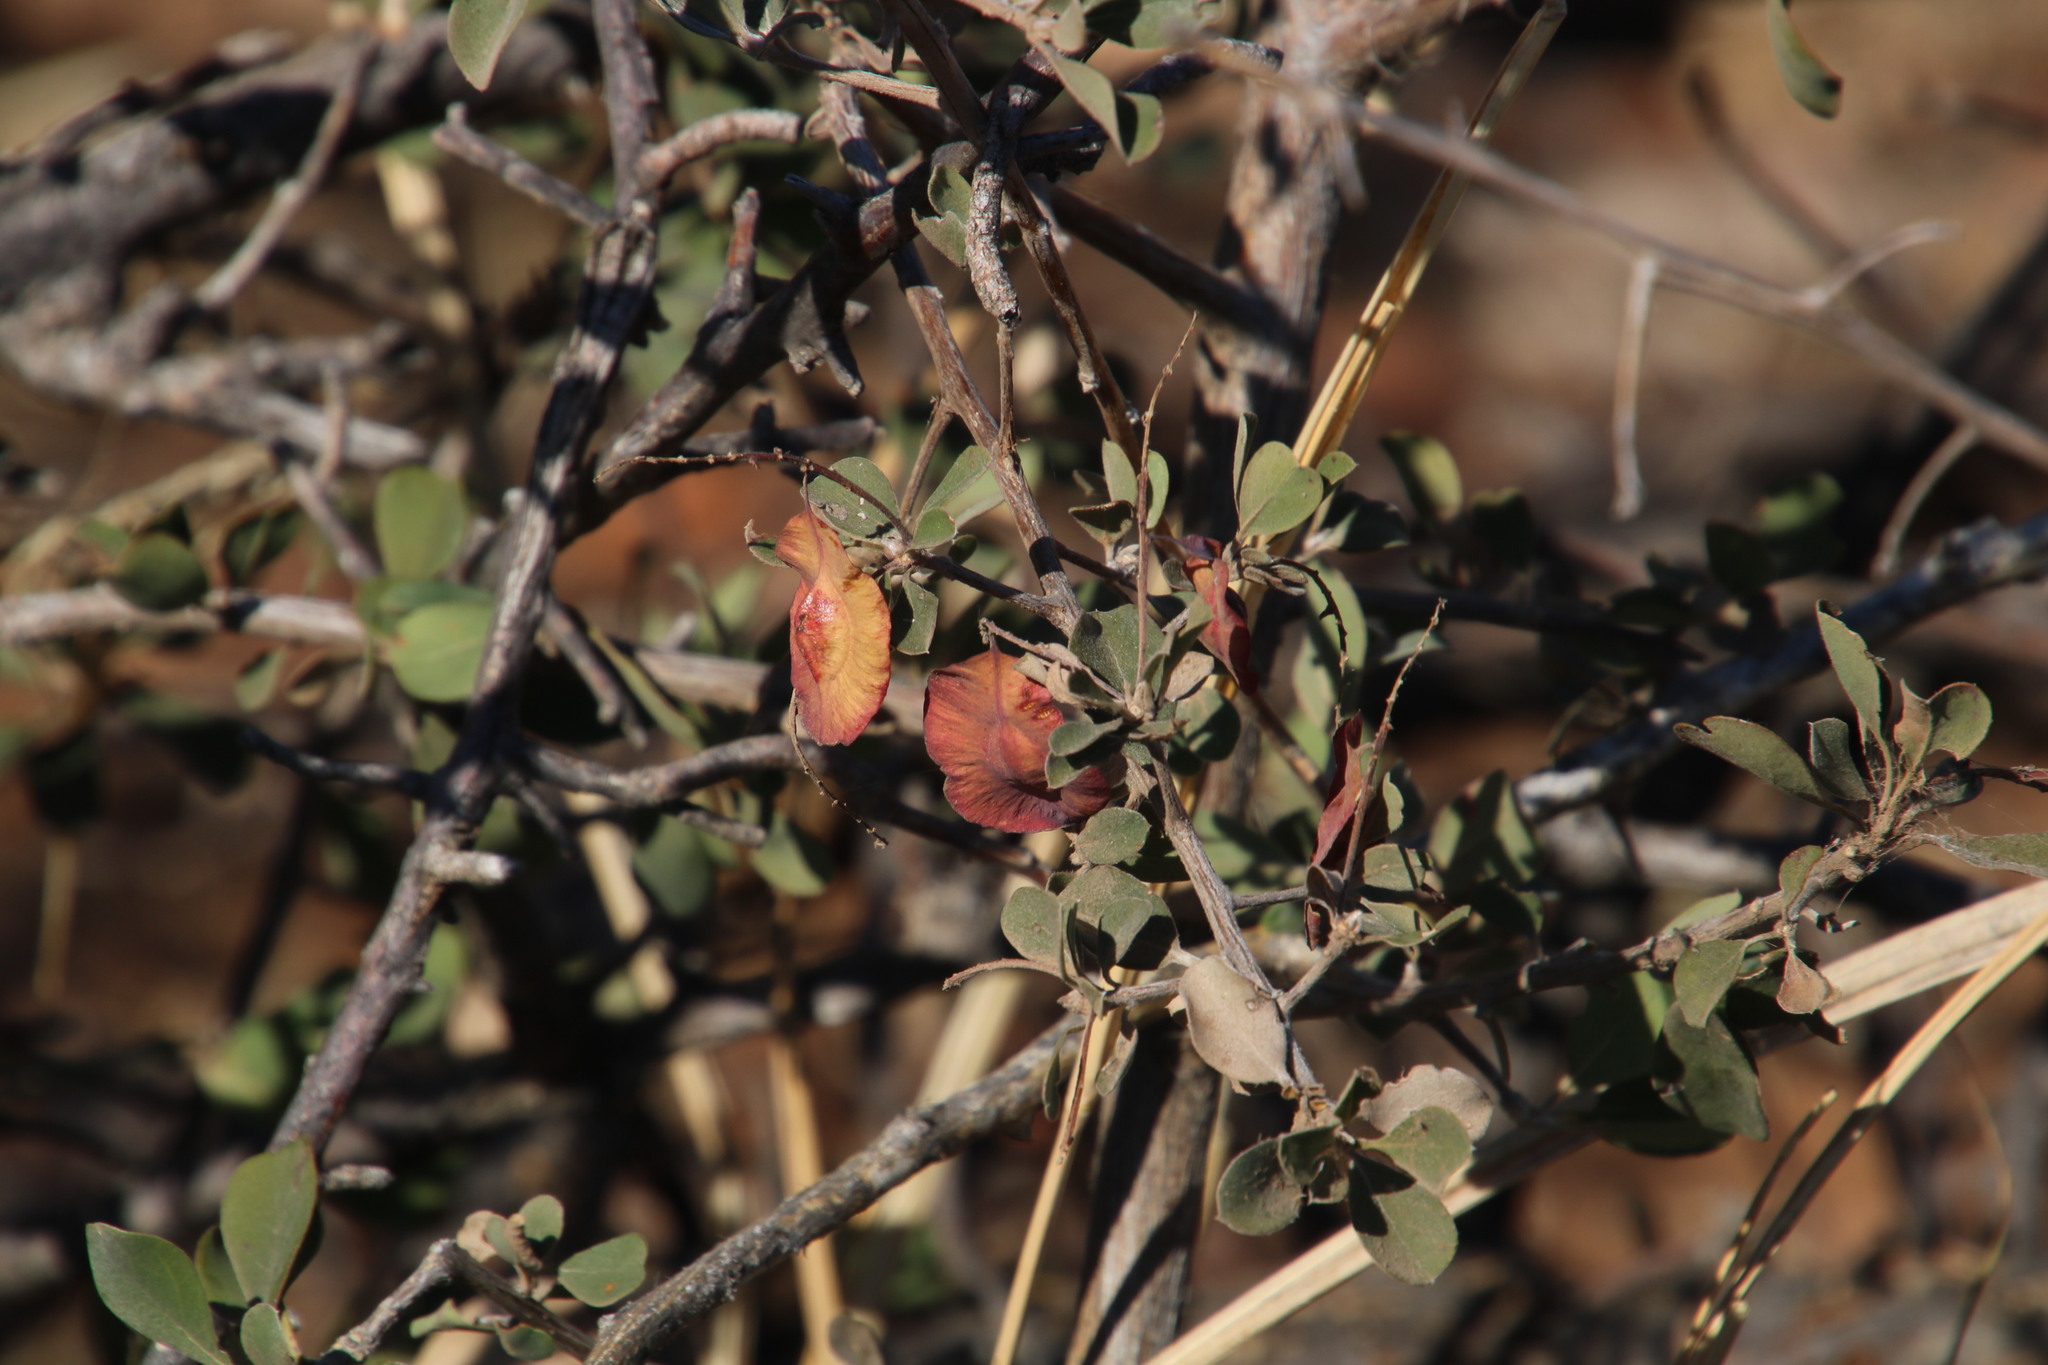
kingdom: Plantae
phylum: Tracheophyta
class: Magnoliopsida
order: Myrtales
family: Combretaceae
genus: Terminalia
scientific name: Terminalia prunioides
